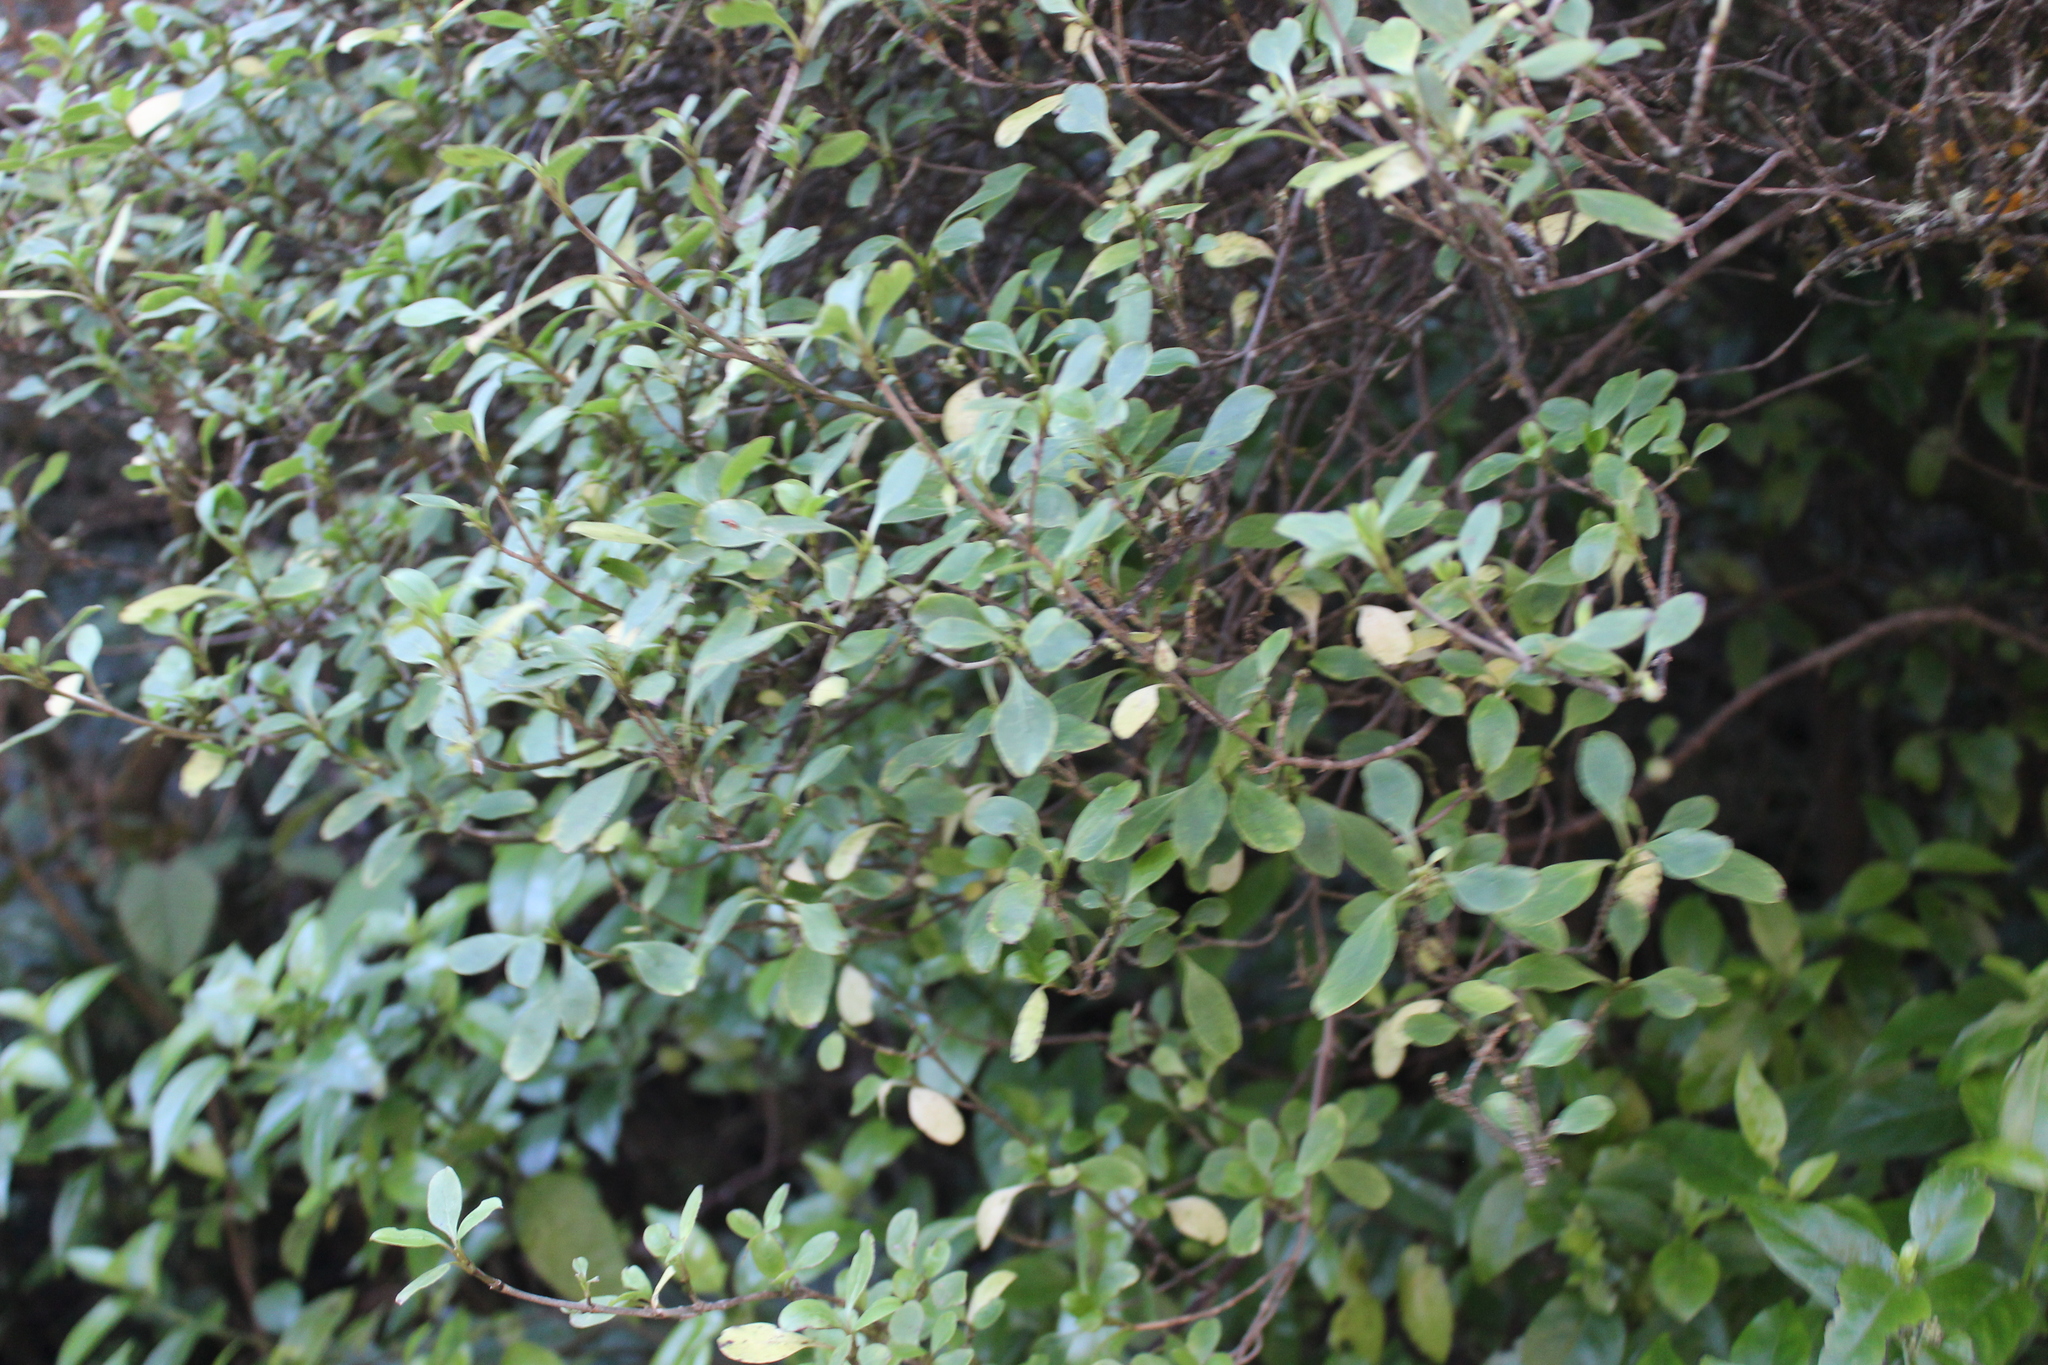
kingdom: Plantae
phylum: Tracheophyta
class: Magnoliopsida
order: Gentianales
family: Rubiaceae
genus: Coprosma
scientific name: Coprosma foetidissima
